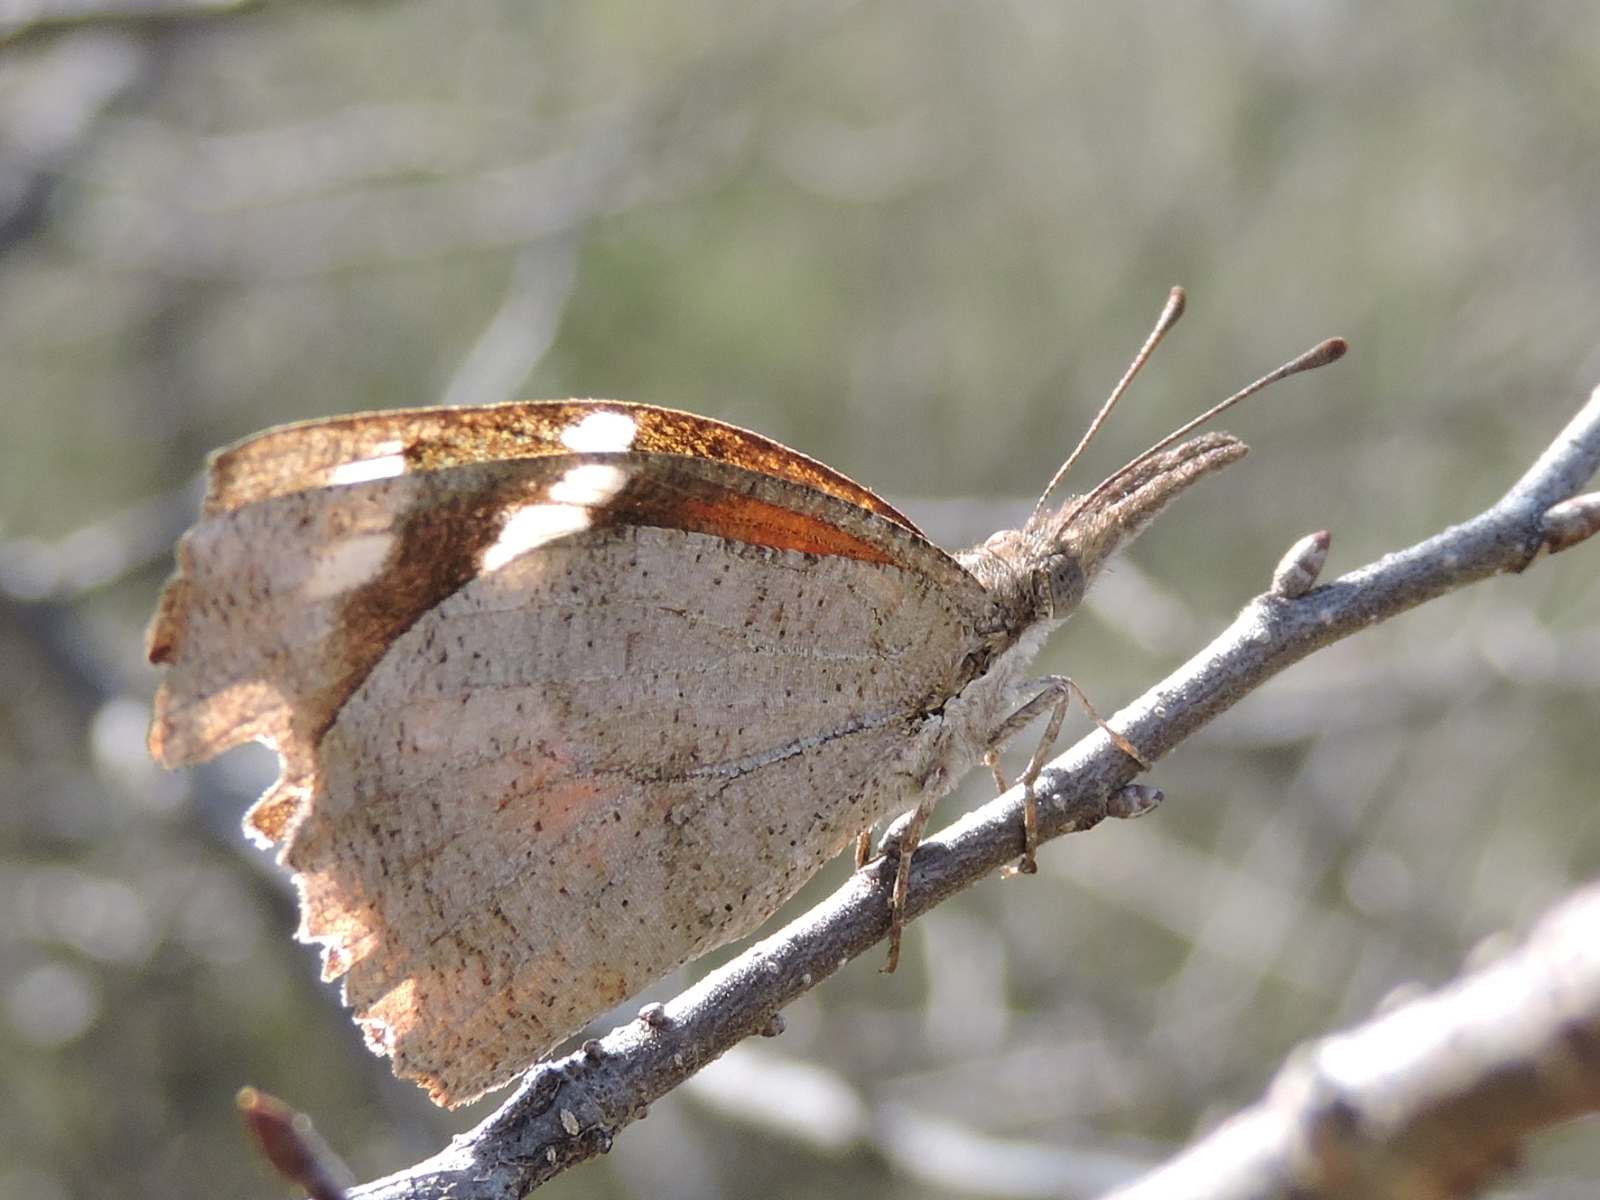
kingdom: Animalia
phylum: Arthropoda
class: Insecta
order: Lepidoptera
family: Nymphalidae
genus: Libytheana
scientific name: Libytheana carinenta
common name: American snout
